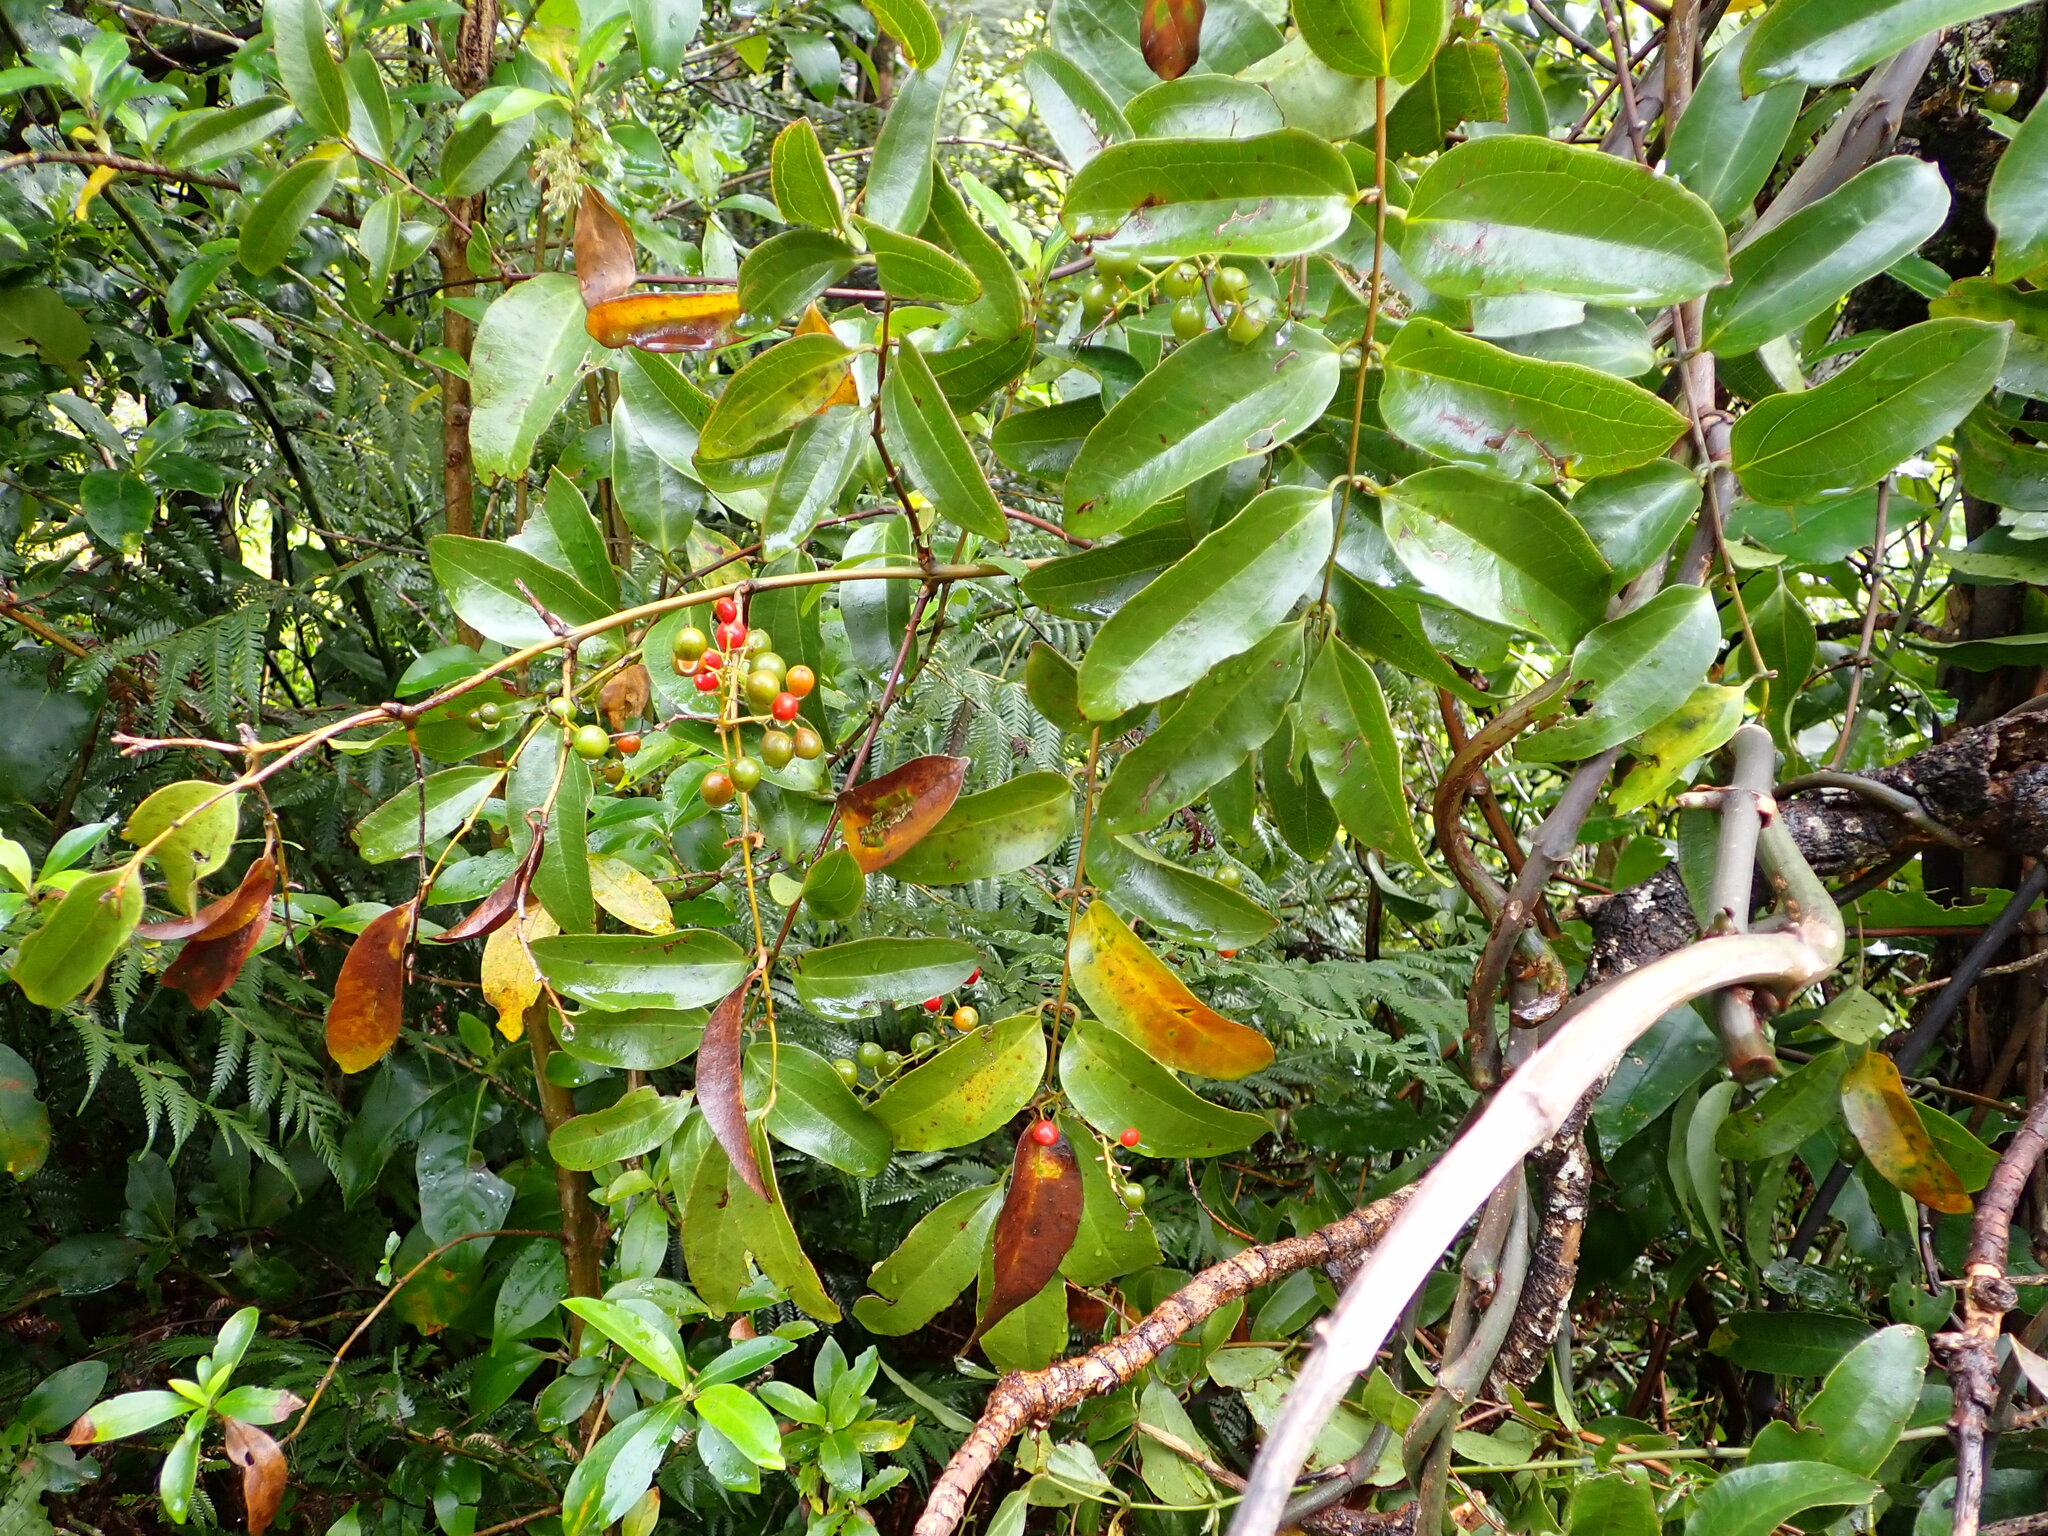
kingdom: Plantae
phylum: Tracheophyta
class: Liliopsida
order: Liliales
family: Ripogonaceae
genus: Ripogonum
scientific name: Ripogonum scandens
